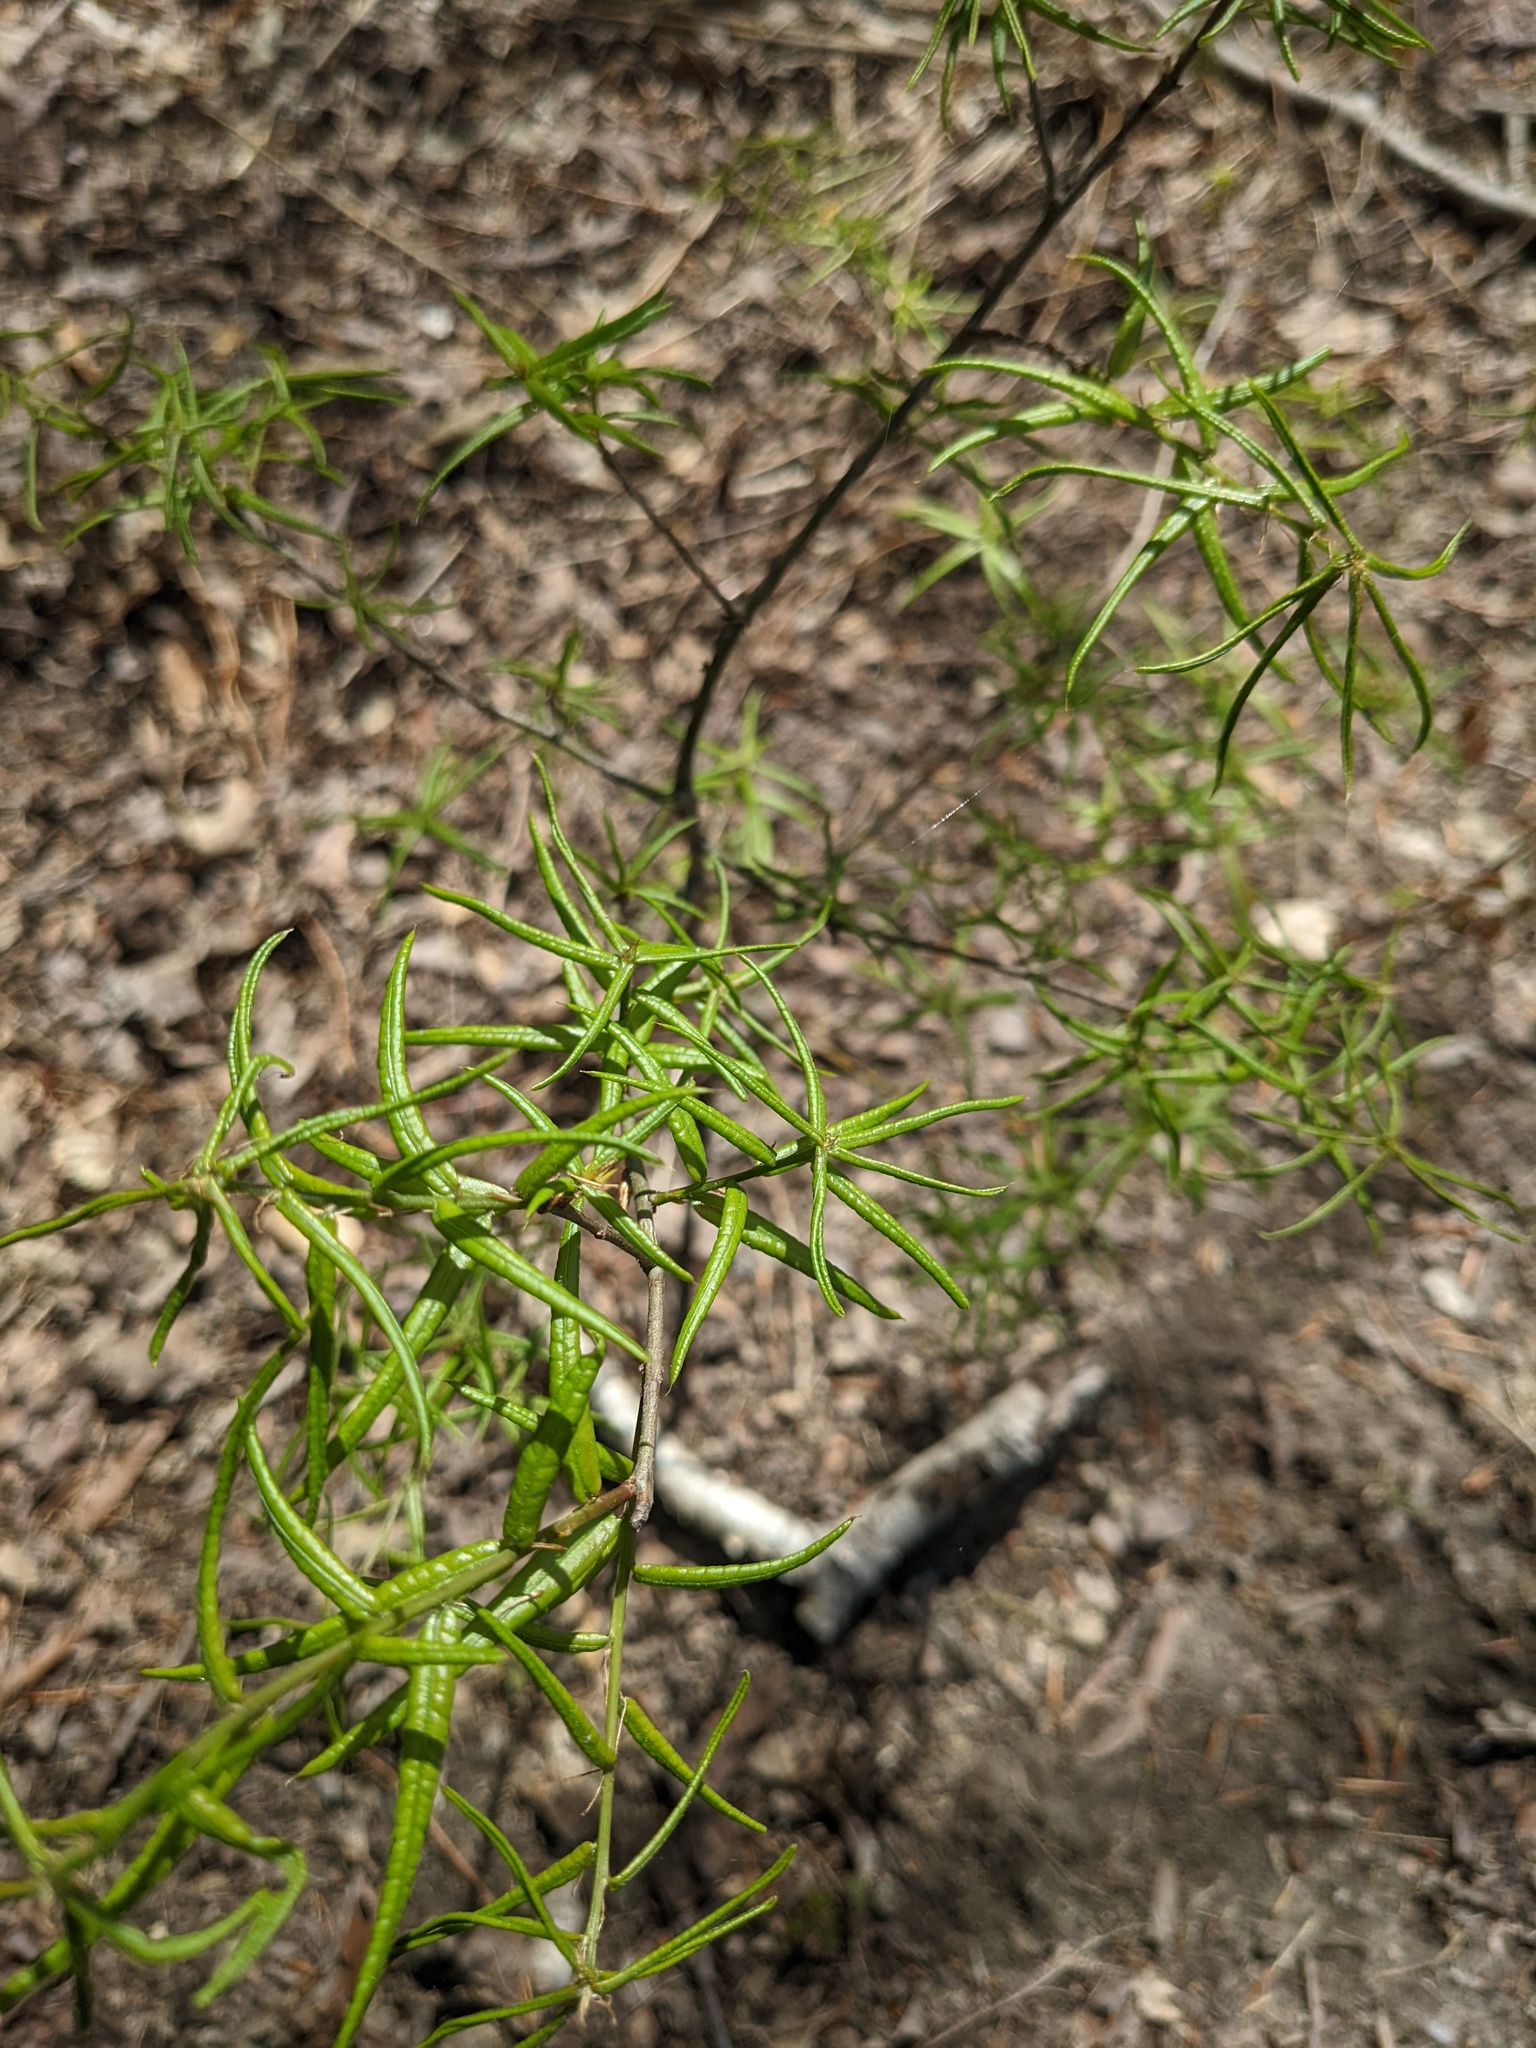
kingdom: Plantae
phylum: Tracheophyta
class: Magnoliopsida
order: Fagales
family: Fagaceae
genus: Quercus
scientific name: Quercus phellos
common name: Willow oak
